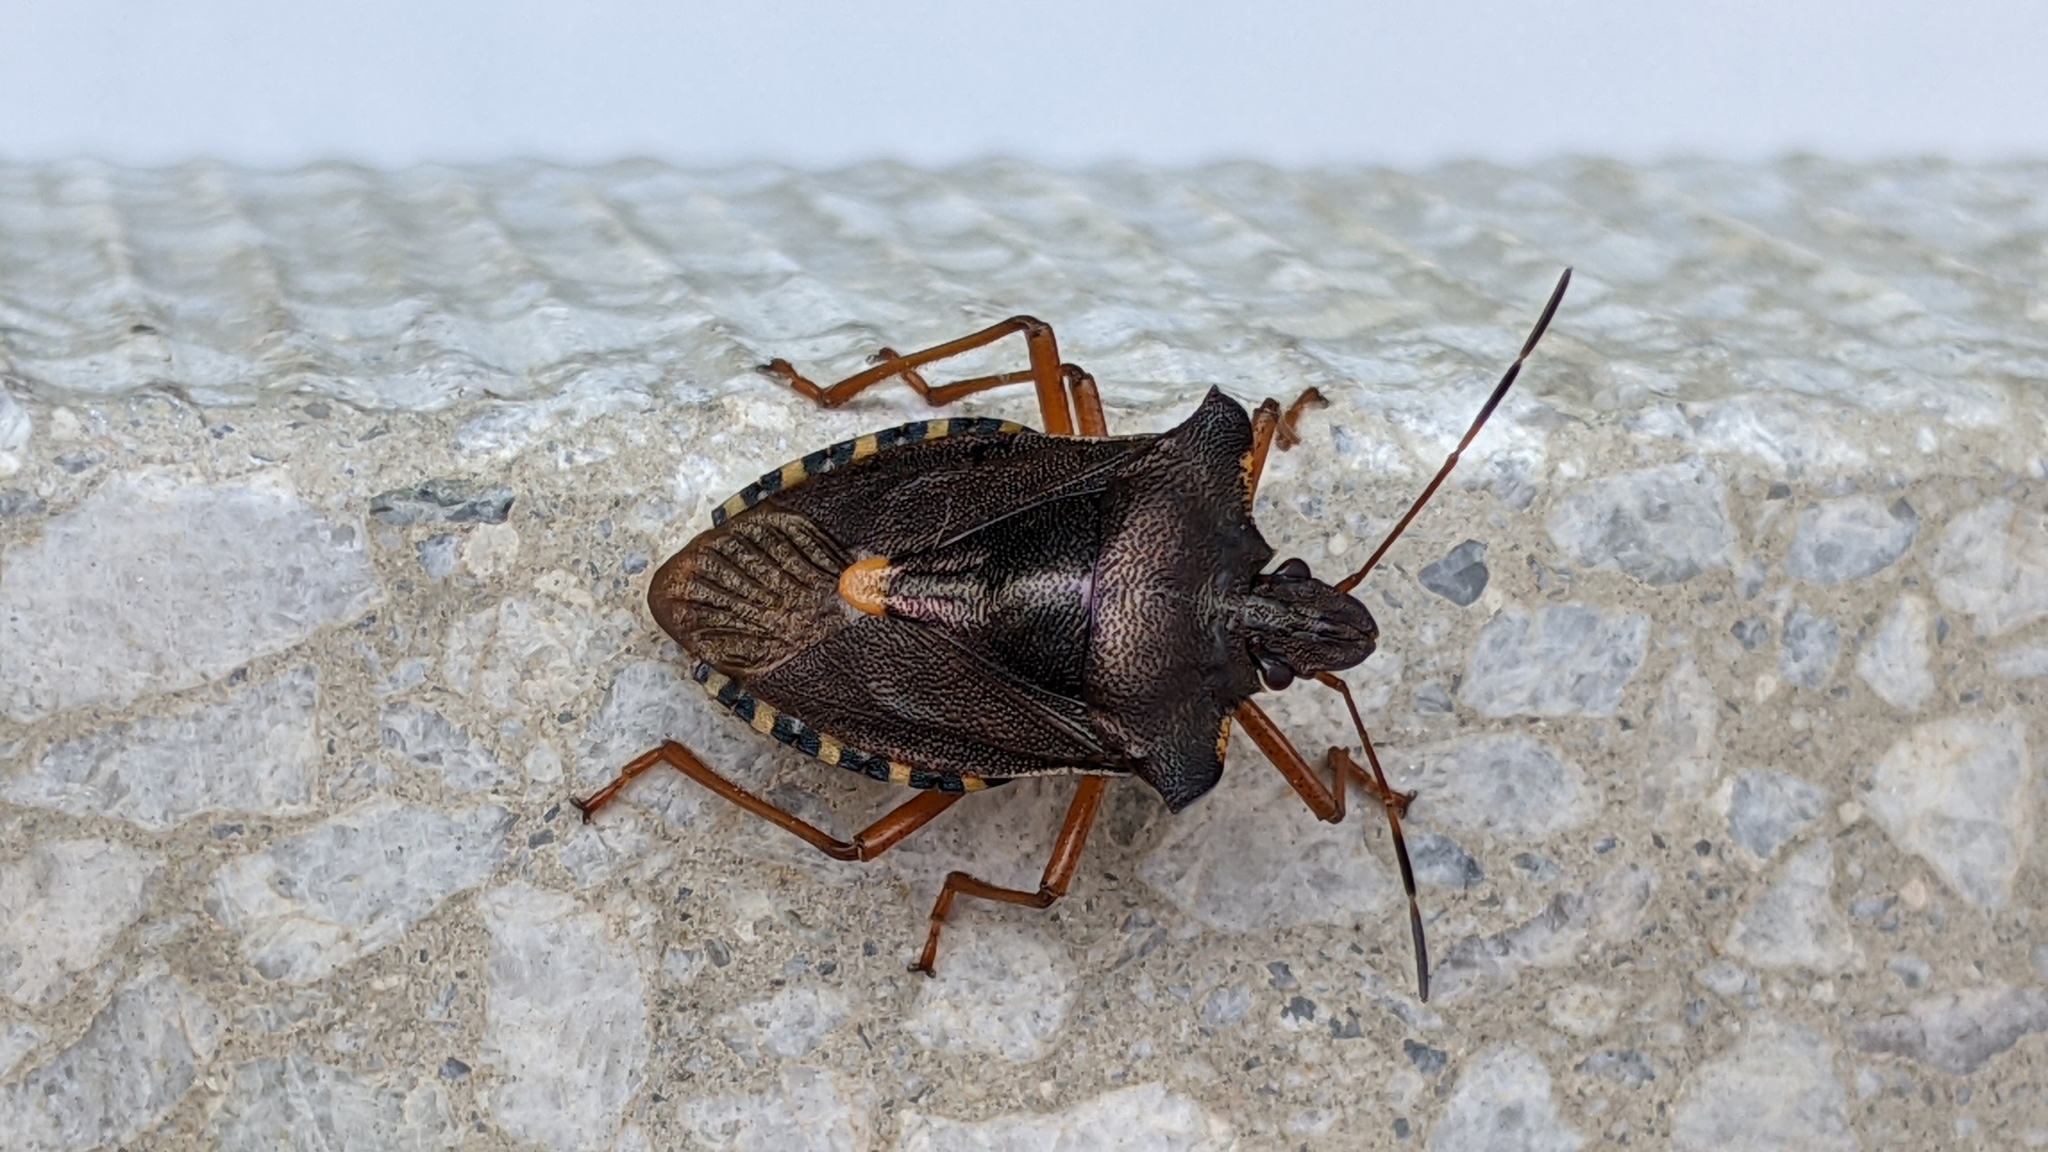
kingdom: Animalia
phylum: Arthropoda
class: Insecta
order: Hemiptera
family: Pentatomidae
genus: Pentatoma
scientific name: Pentatoma rufipes
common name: Forest bug
